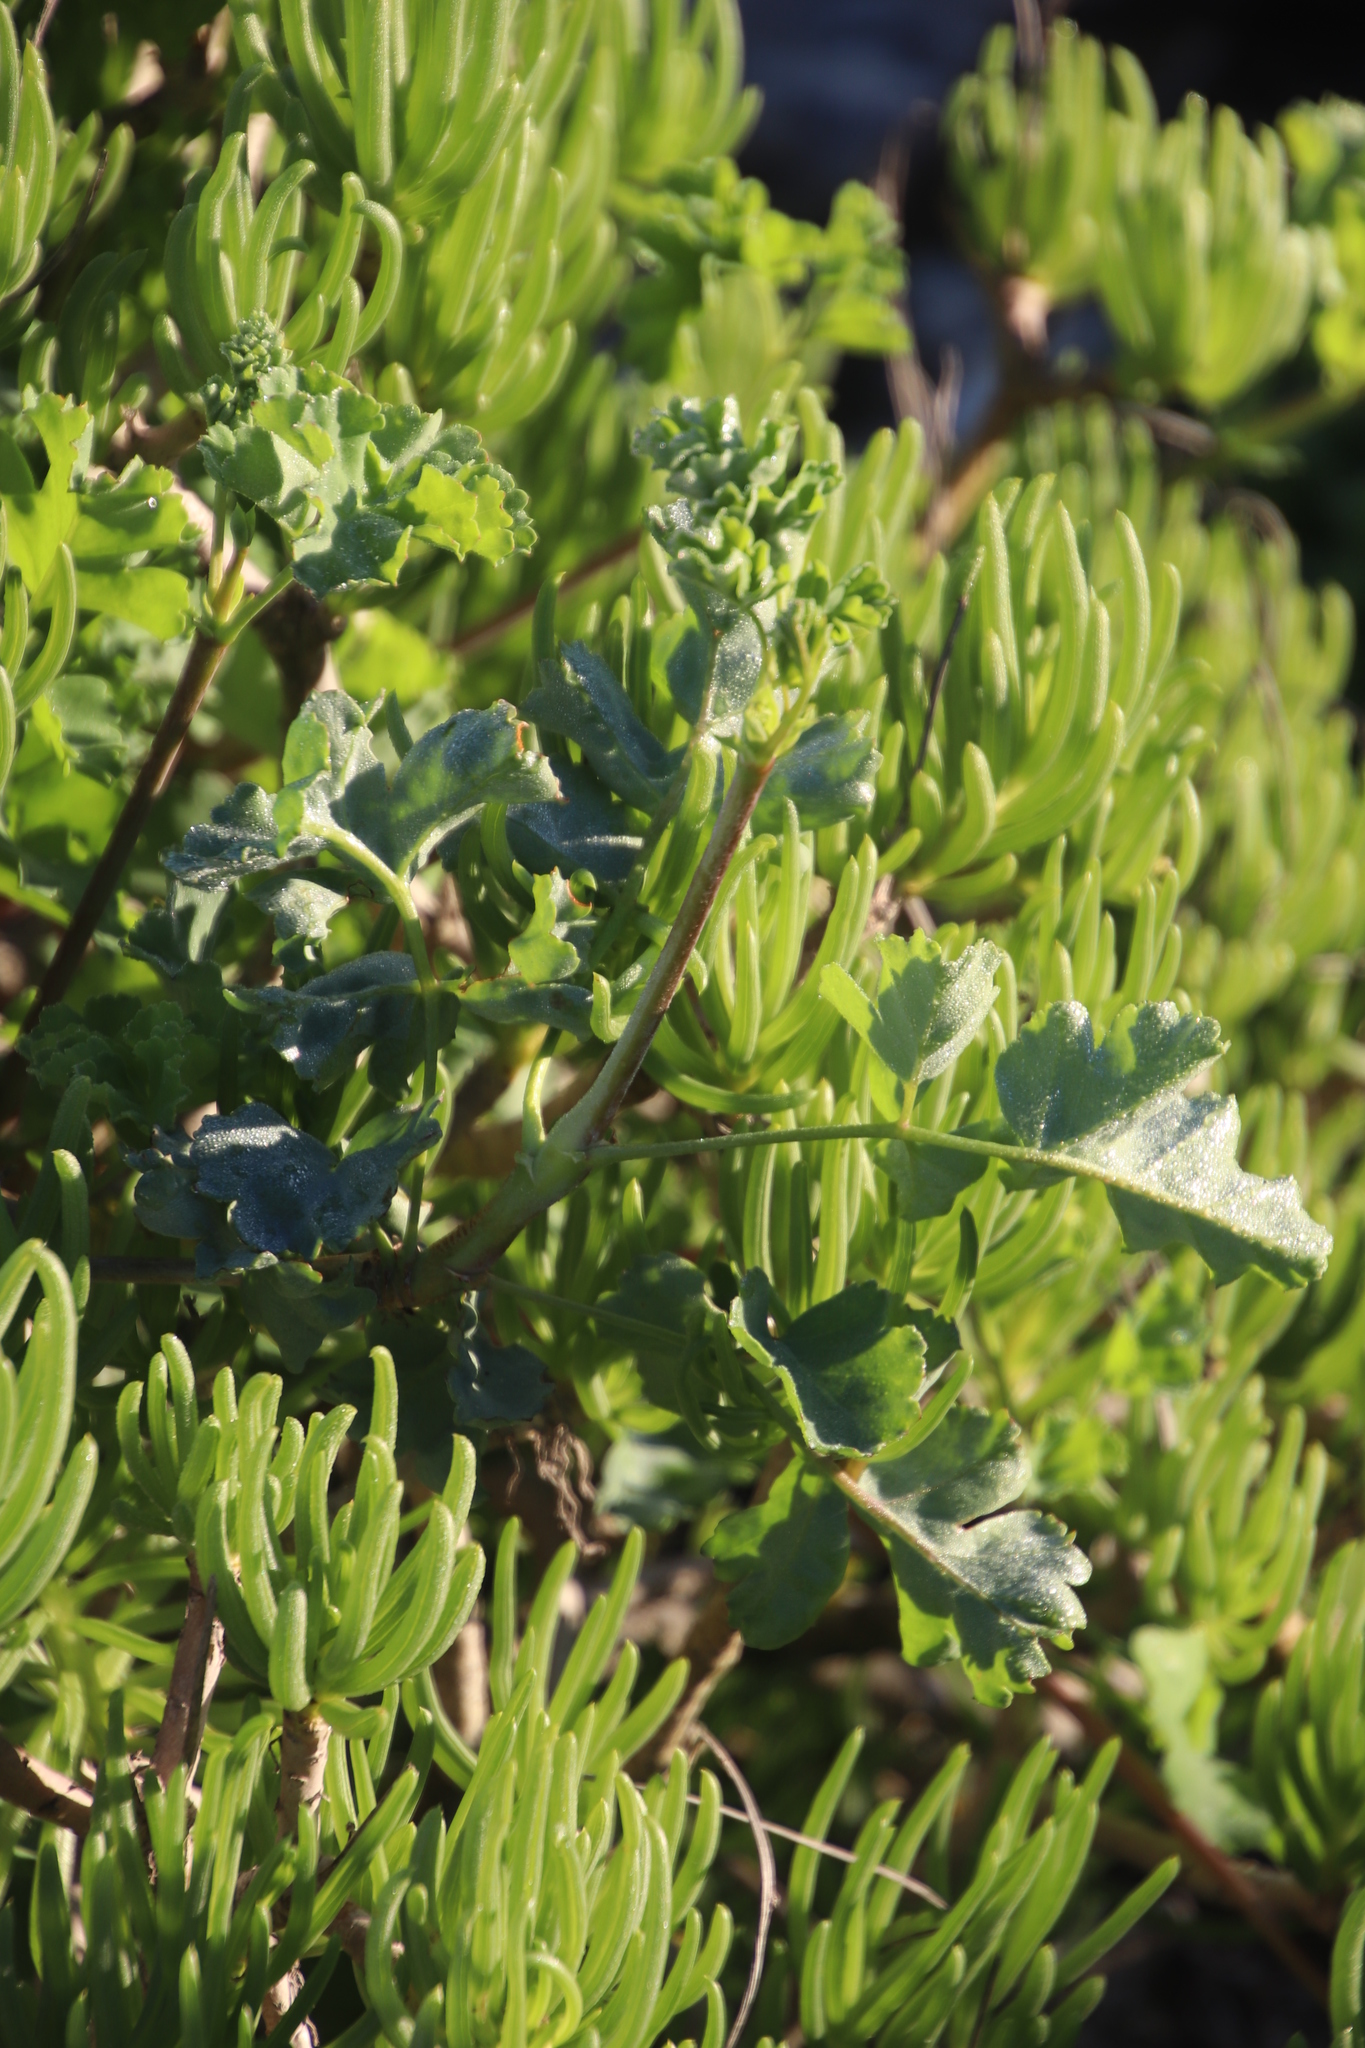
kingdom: Plantae
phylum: Tracheophyta
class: Magnoliopsida
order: Geraniales
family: Geraniaceae
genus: Pelargonium
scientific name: Pelargonium gibbosum
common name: Gouty geranium
